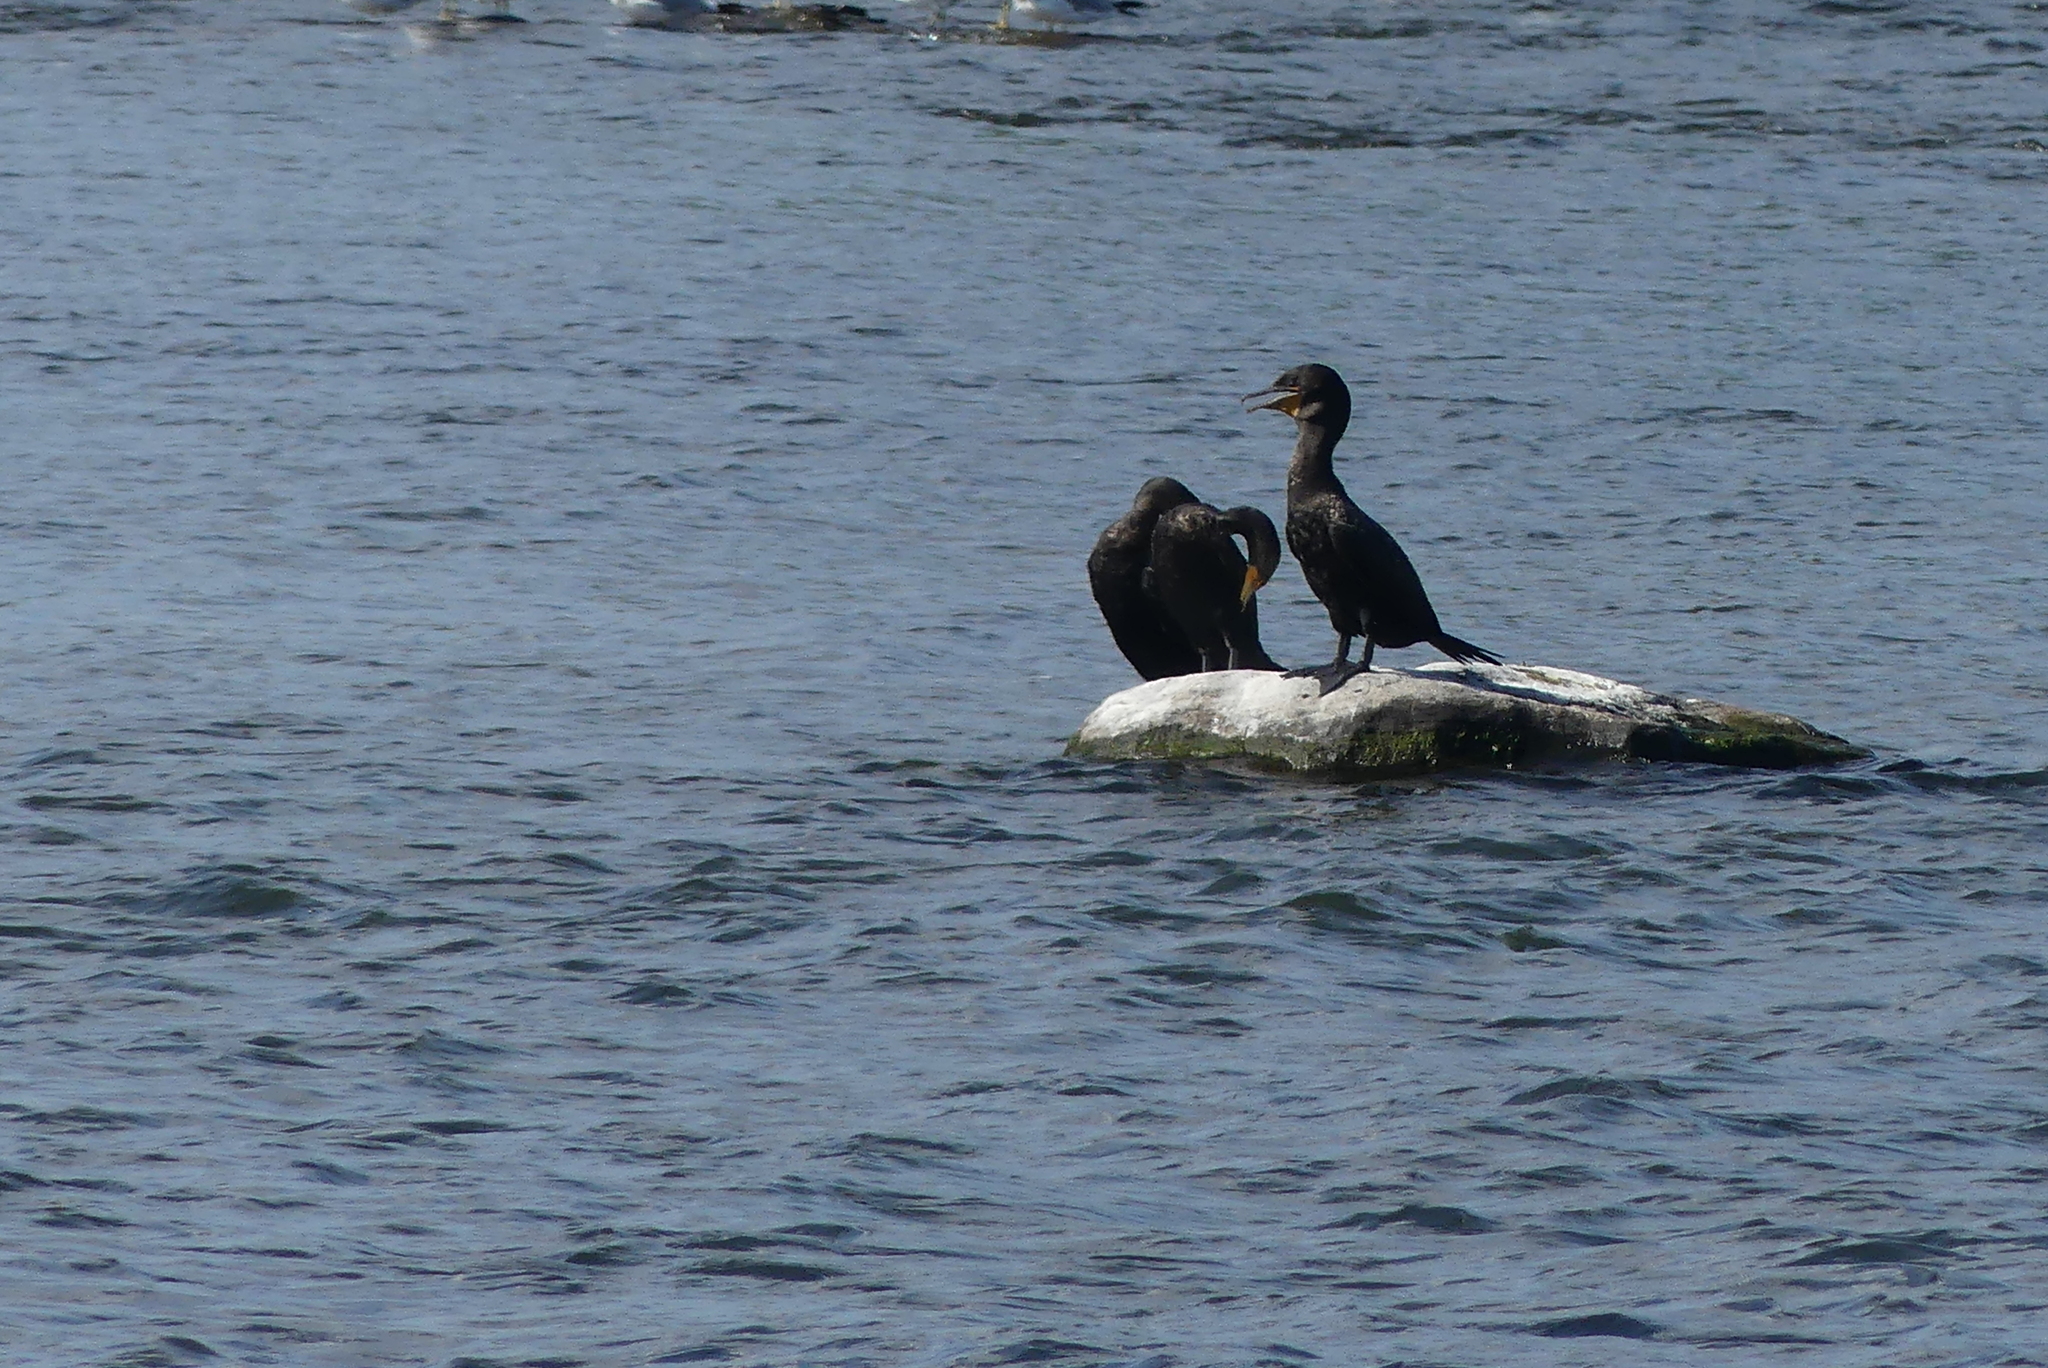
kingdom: Animalia
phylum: Chordata
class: Aves
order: Suliformes
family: Phalacrocoracidae
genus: Phalacrocorax
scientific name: Phalacrocorax auritus
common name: Double-crested cormorant
